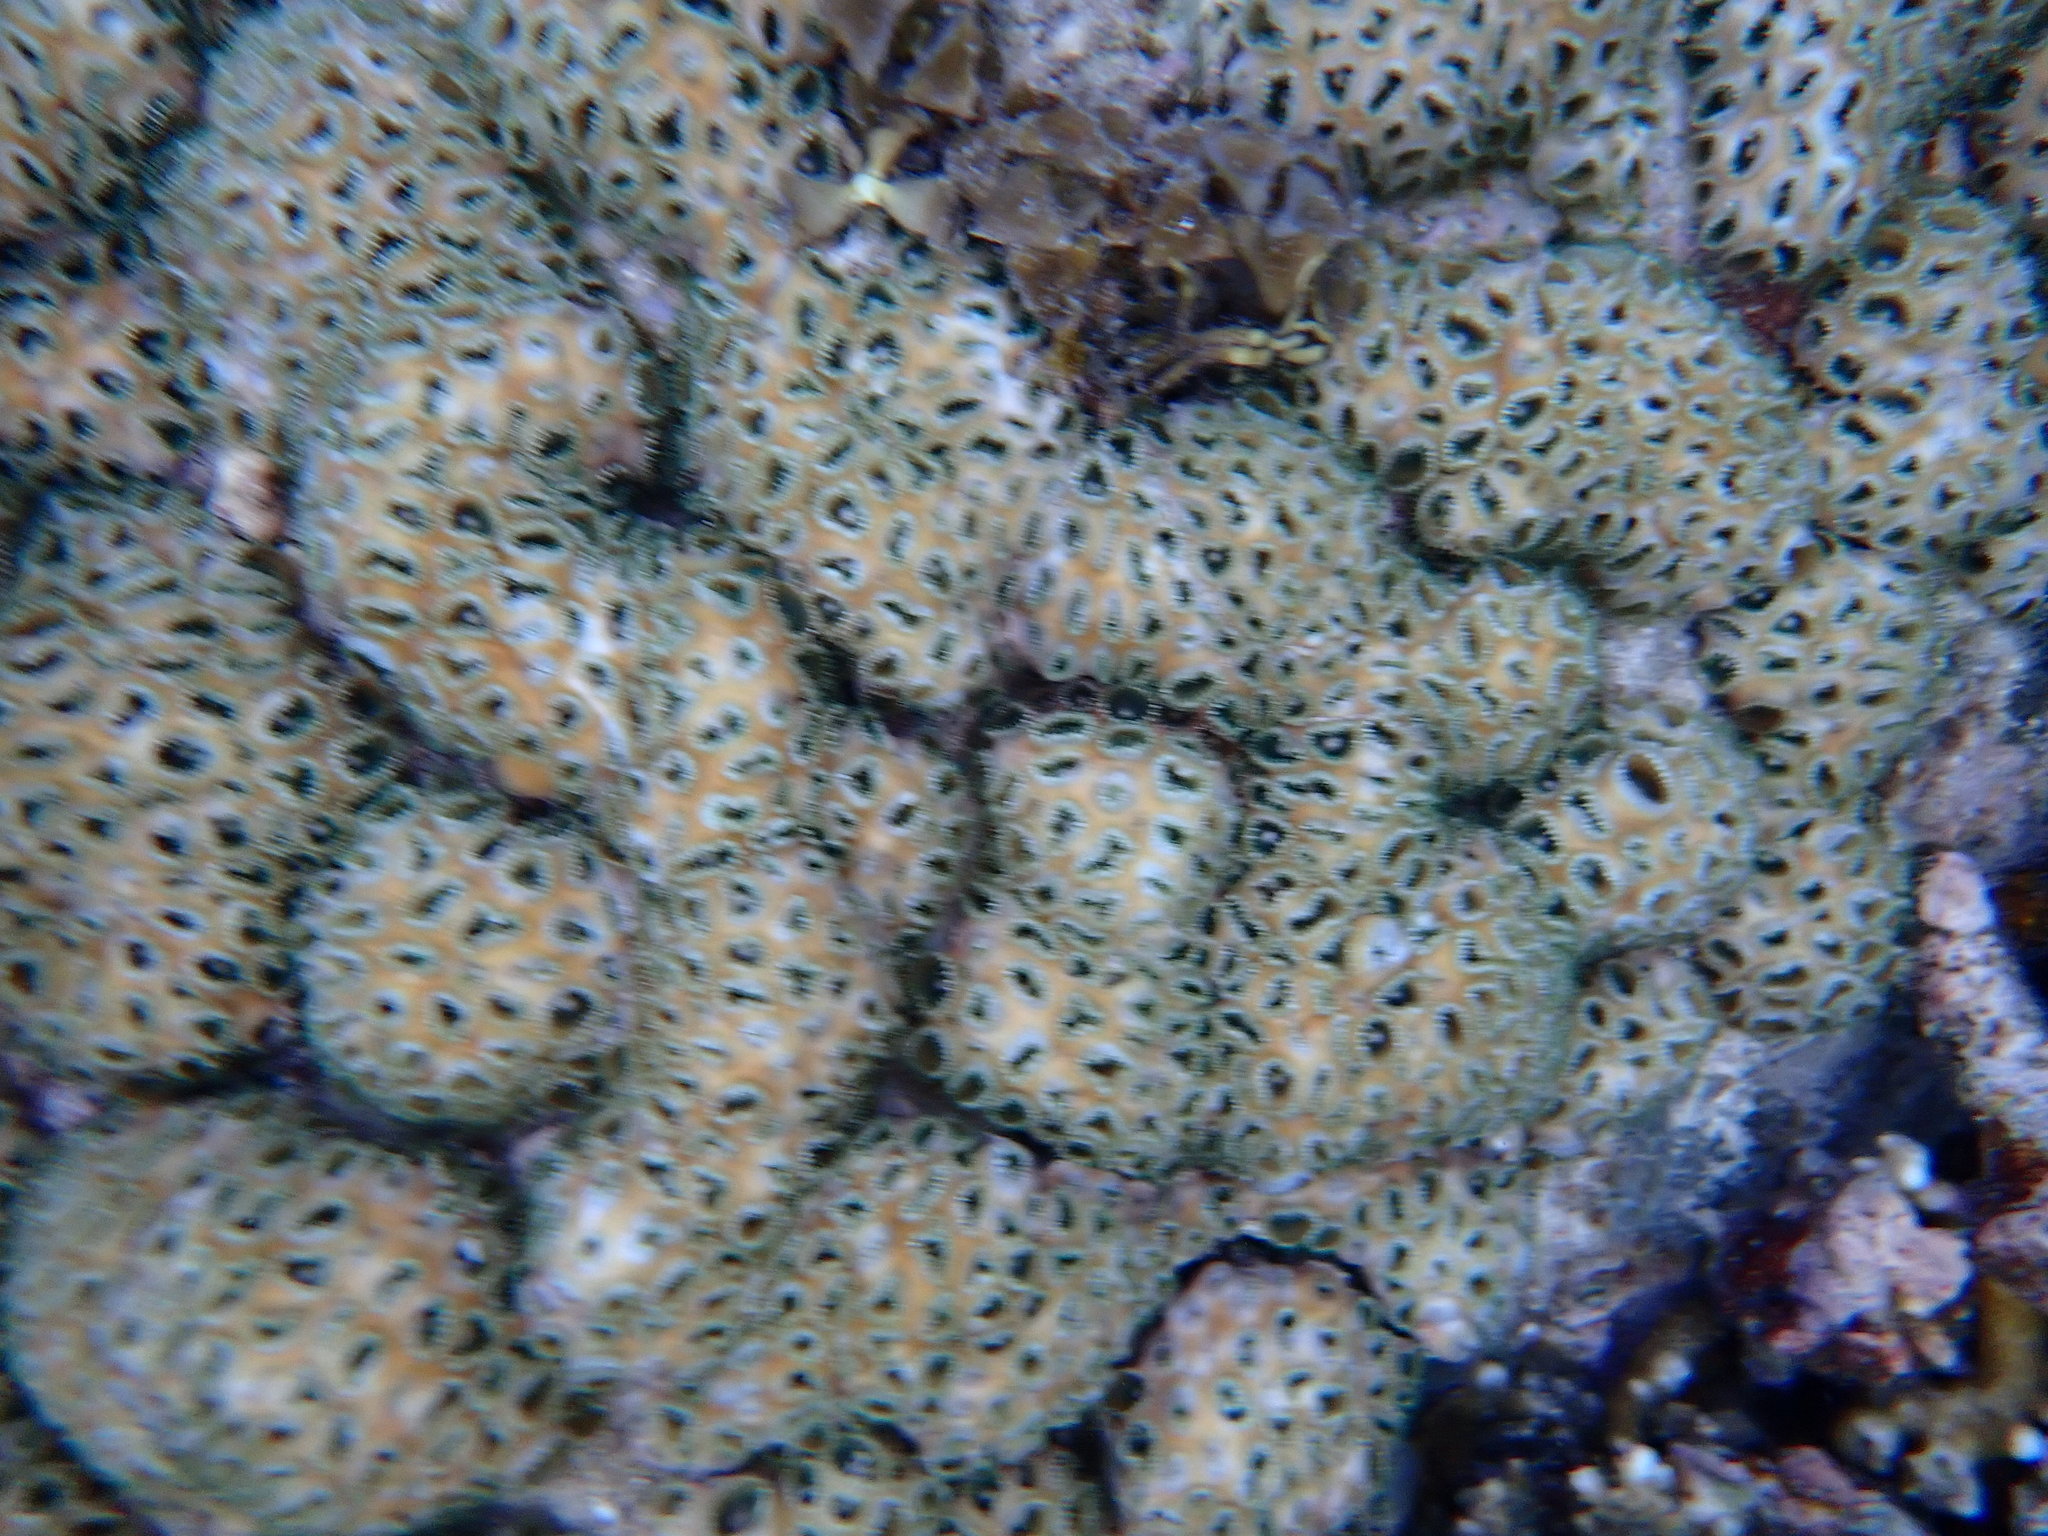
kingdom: Animalia
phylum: Cnidaria
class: Anthozoa
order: Zoantharia
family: Sphenopidae
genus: Palythoa
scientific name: Palythoa tuberculosa
